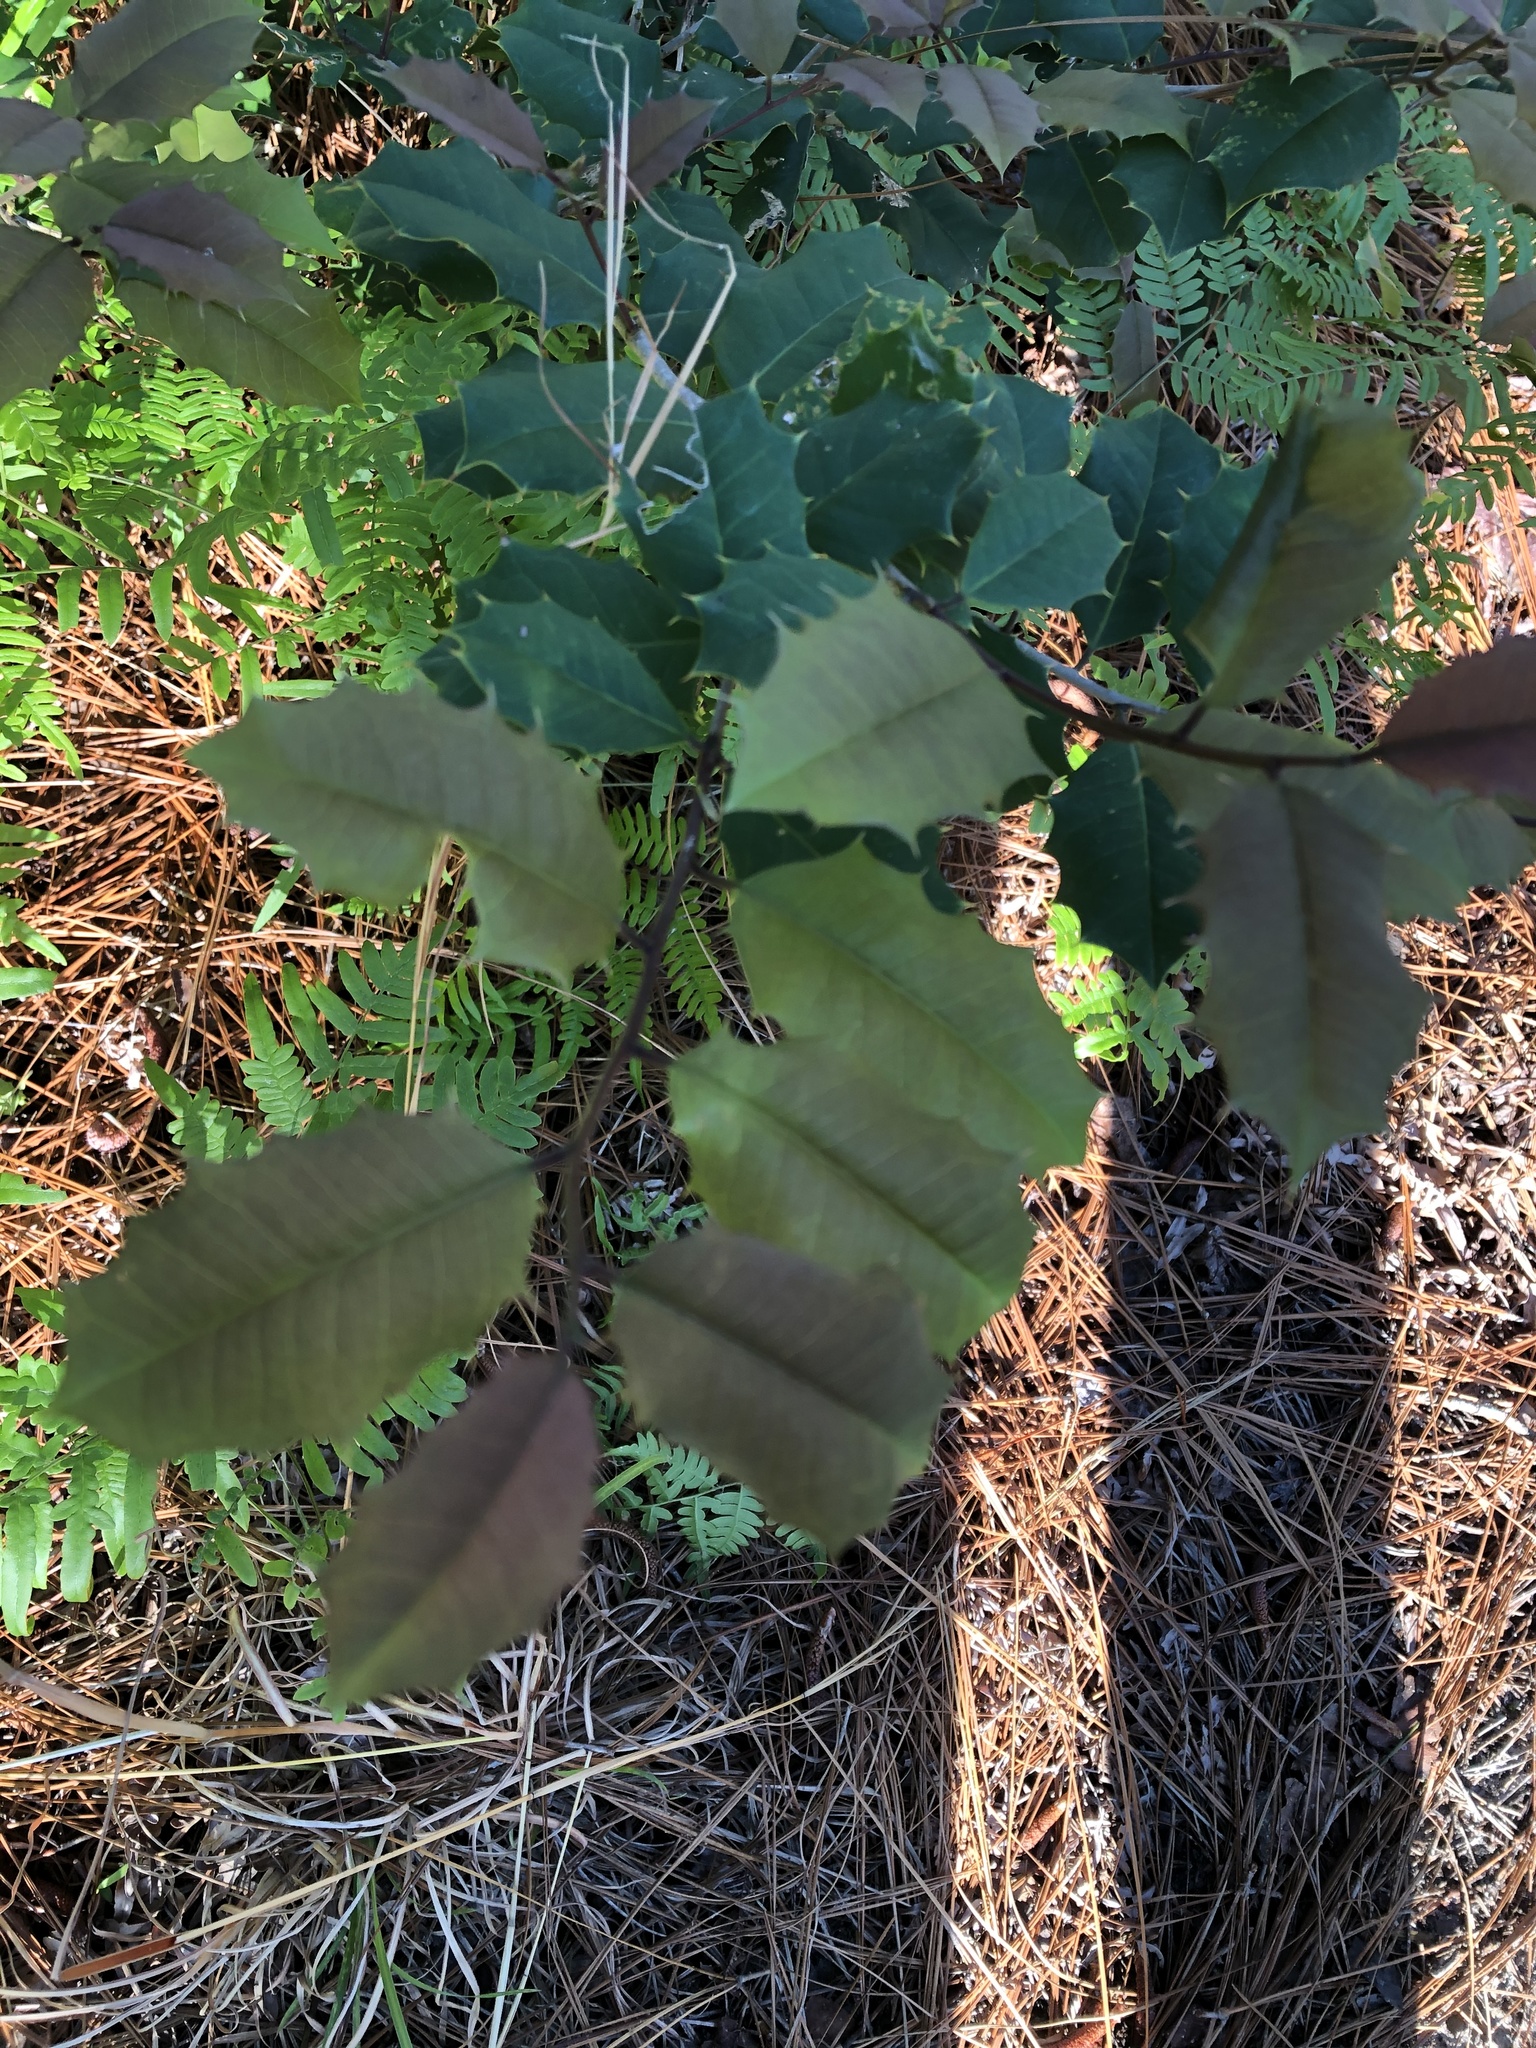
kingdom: Plantae
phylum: Tracheophyta
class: Magnoliopsida
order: Aquifoliales
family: Aquifoliaceae
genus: Ilex
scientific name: Ilex opaca
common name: American holly
